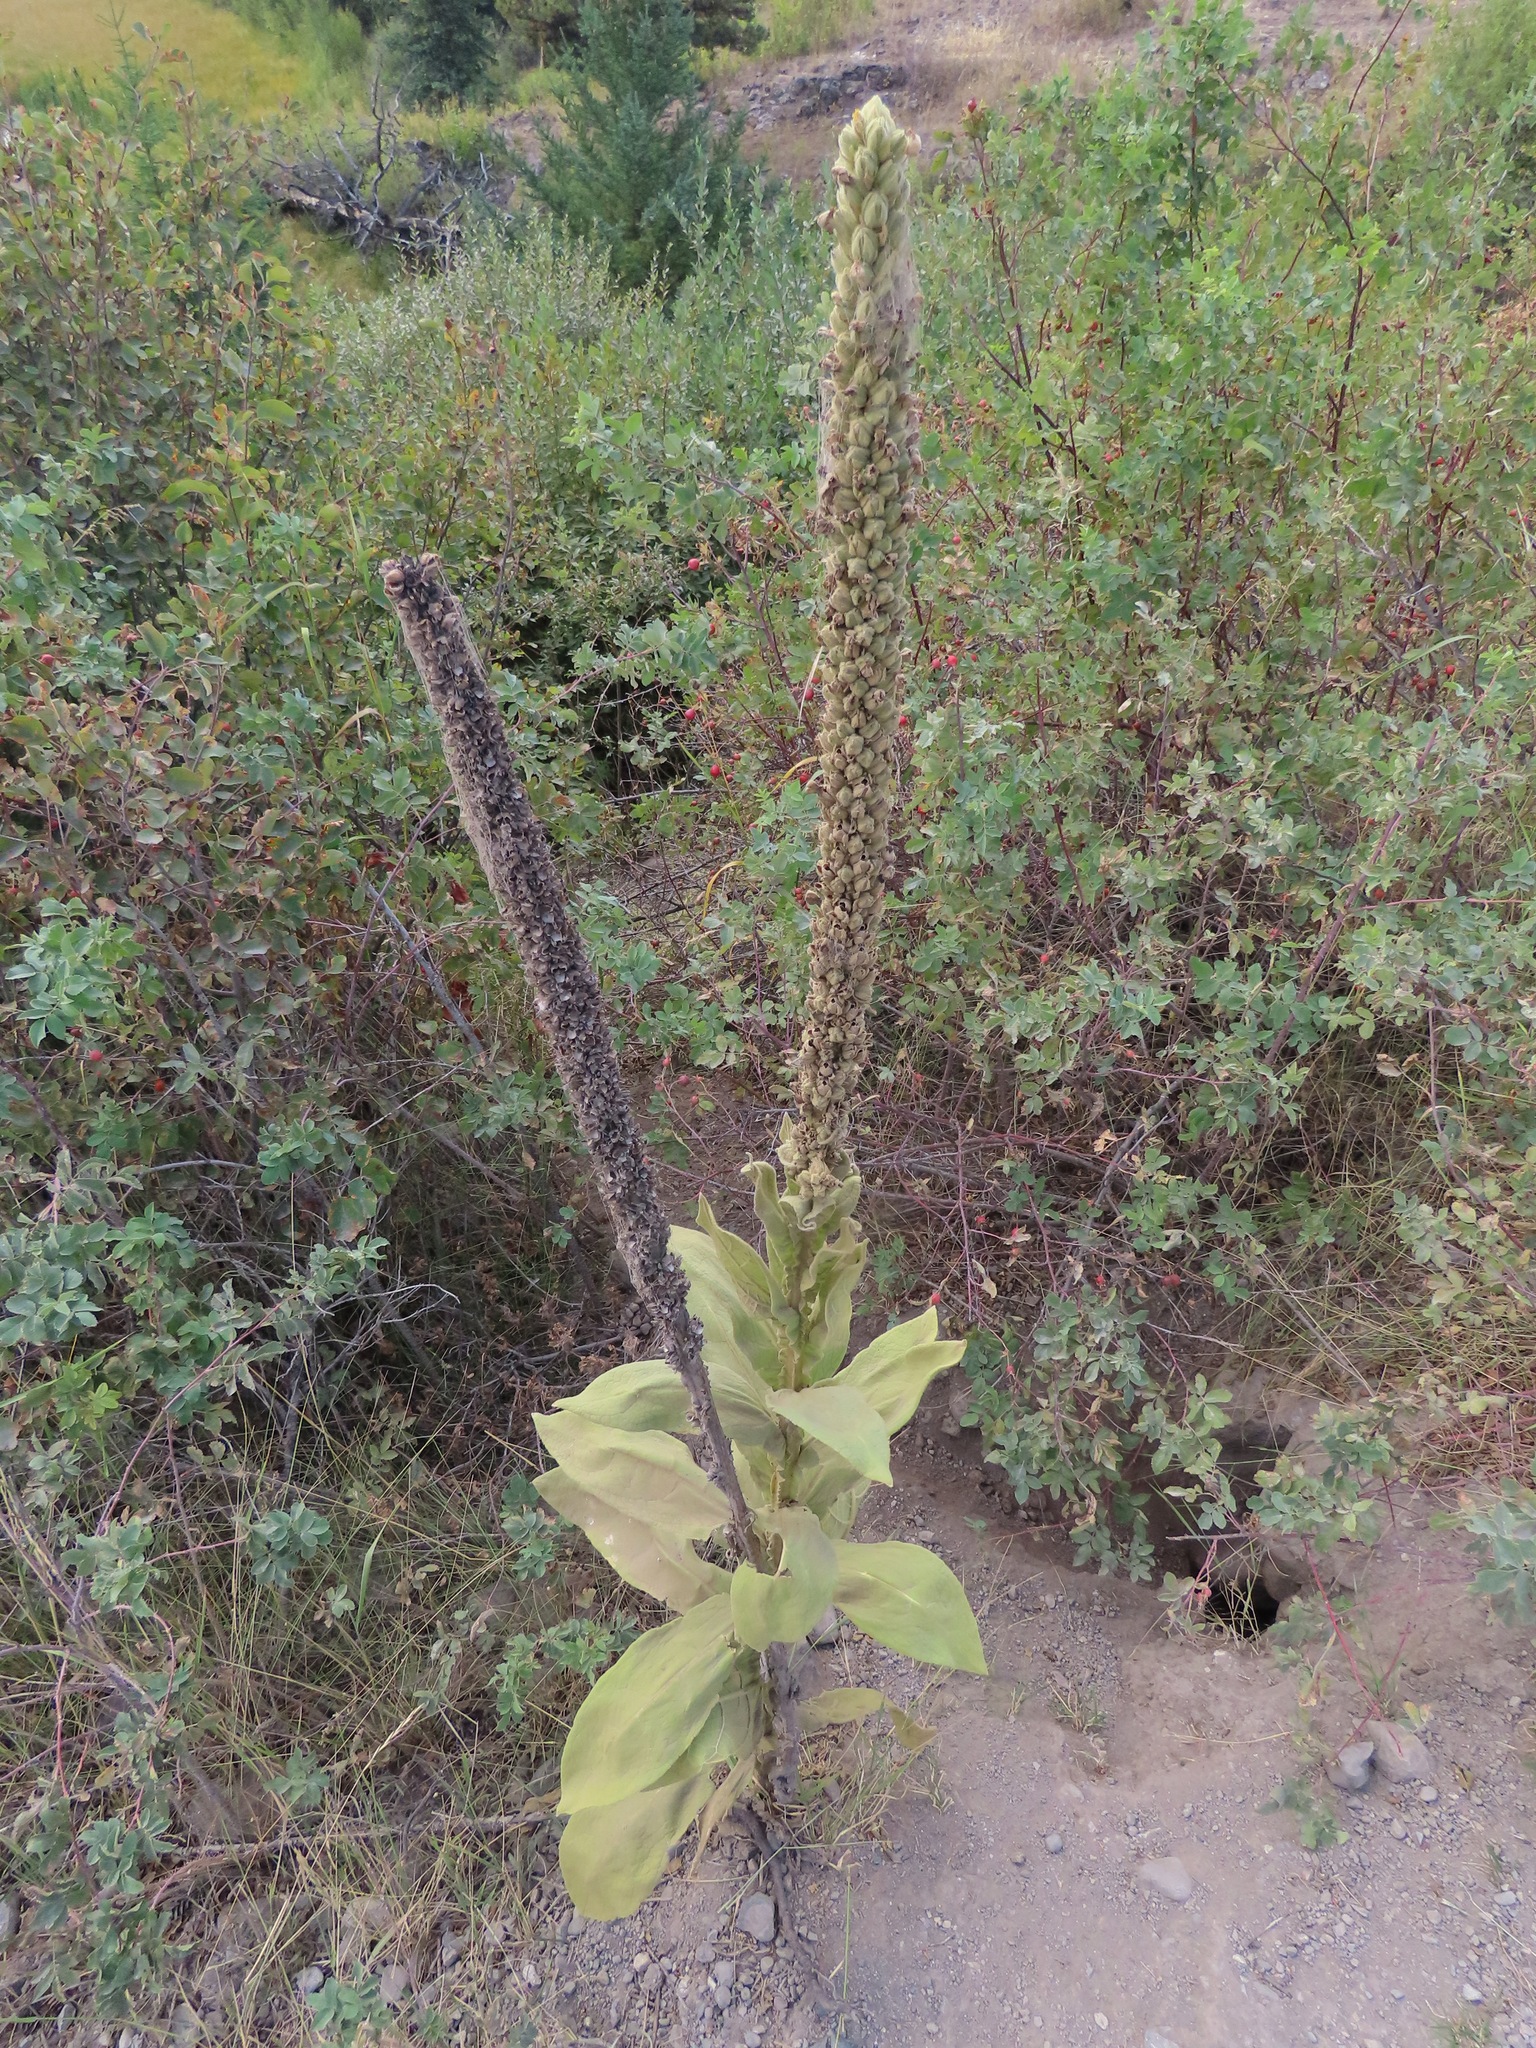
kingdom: Plantae
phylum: Tracheophyta
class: Magnoliopsida
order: Lamiales
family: Scrophulariaceae
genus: Verbascum
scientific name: Verbascum thapsus
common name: Common mullein
